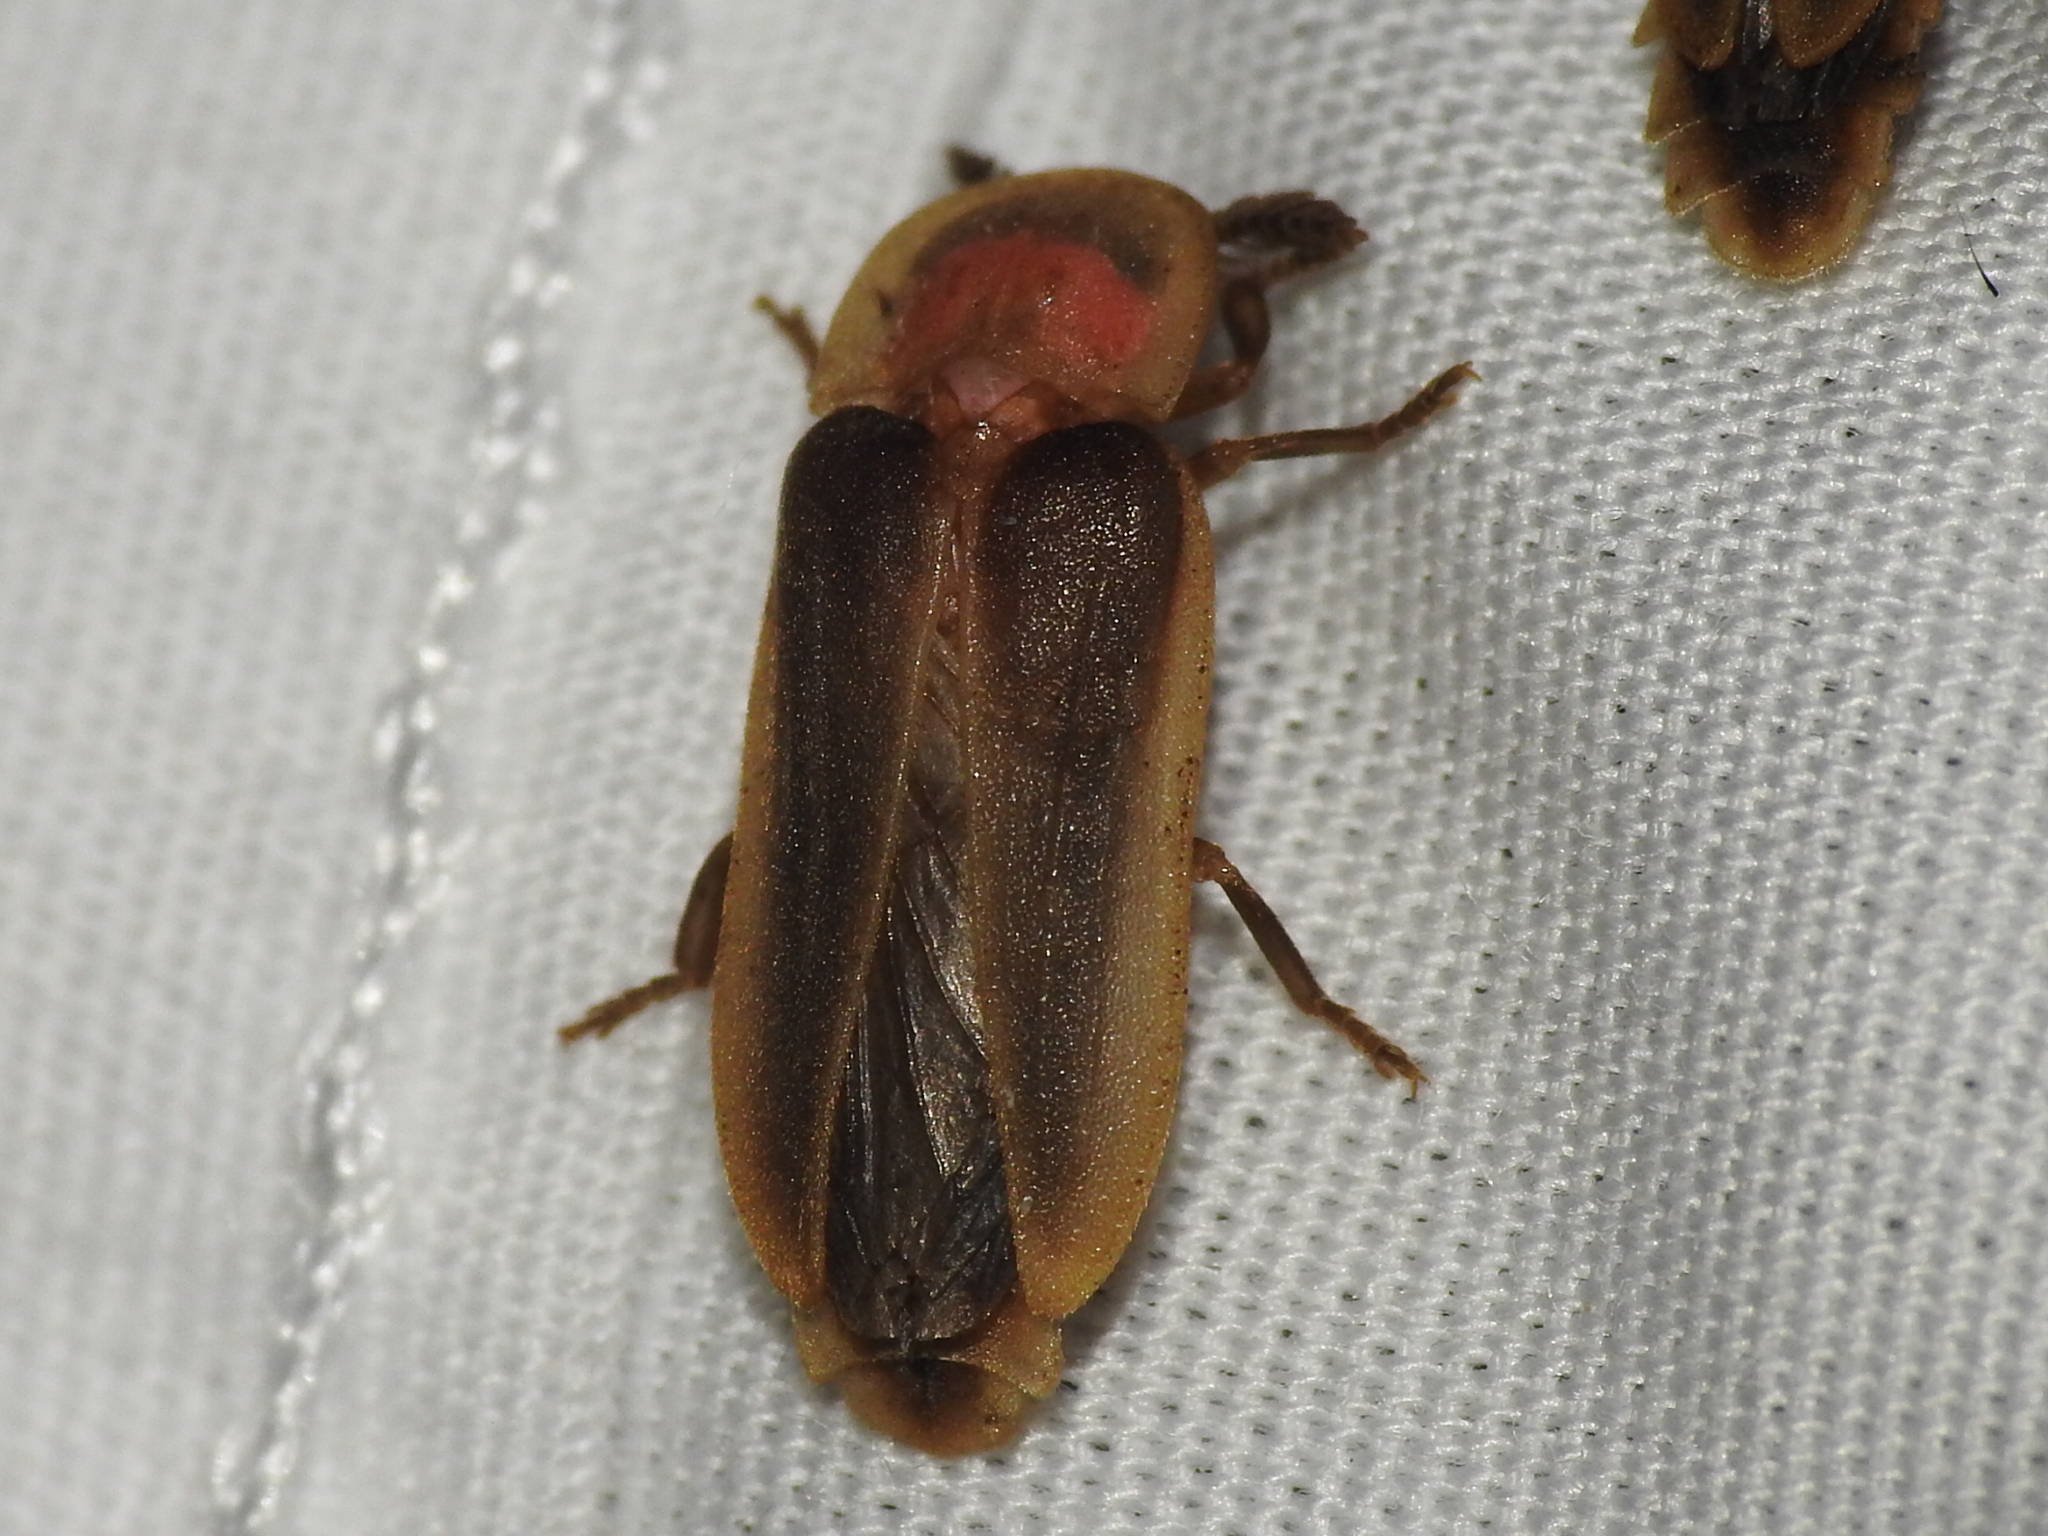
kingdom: Animalia
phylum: Arthropoda
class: Insecta
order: Coleoptera
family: Lampyridae
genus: Pleotomus
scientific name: Pleotomus pallens
